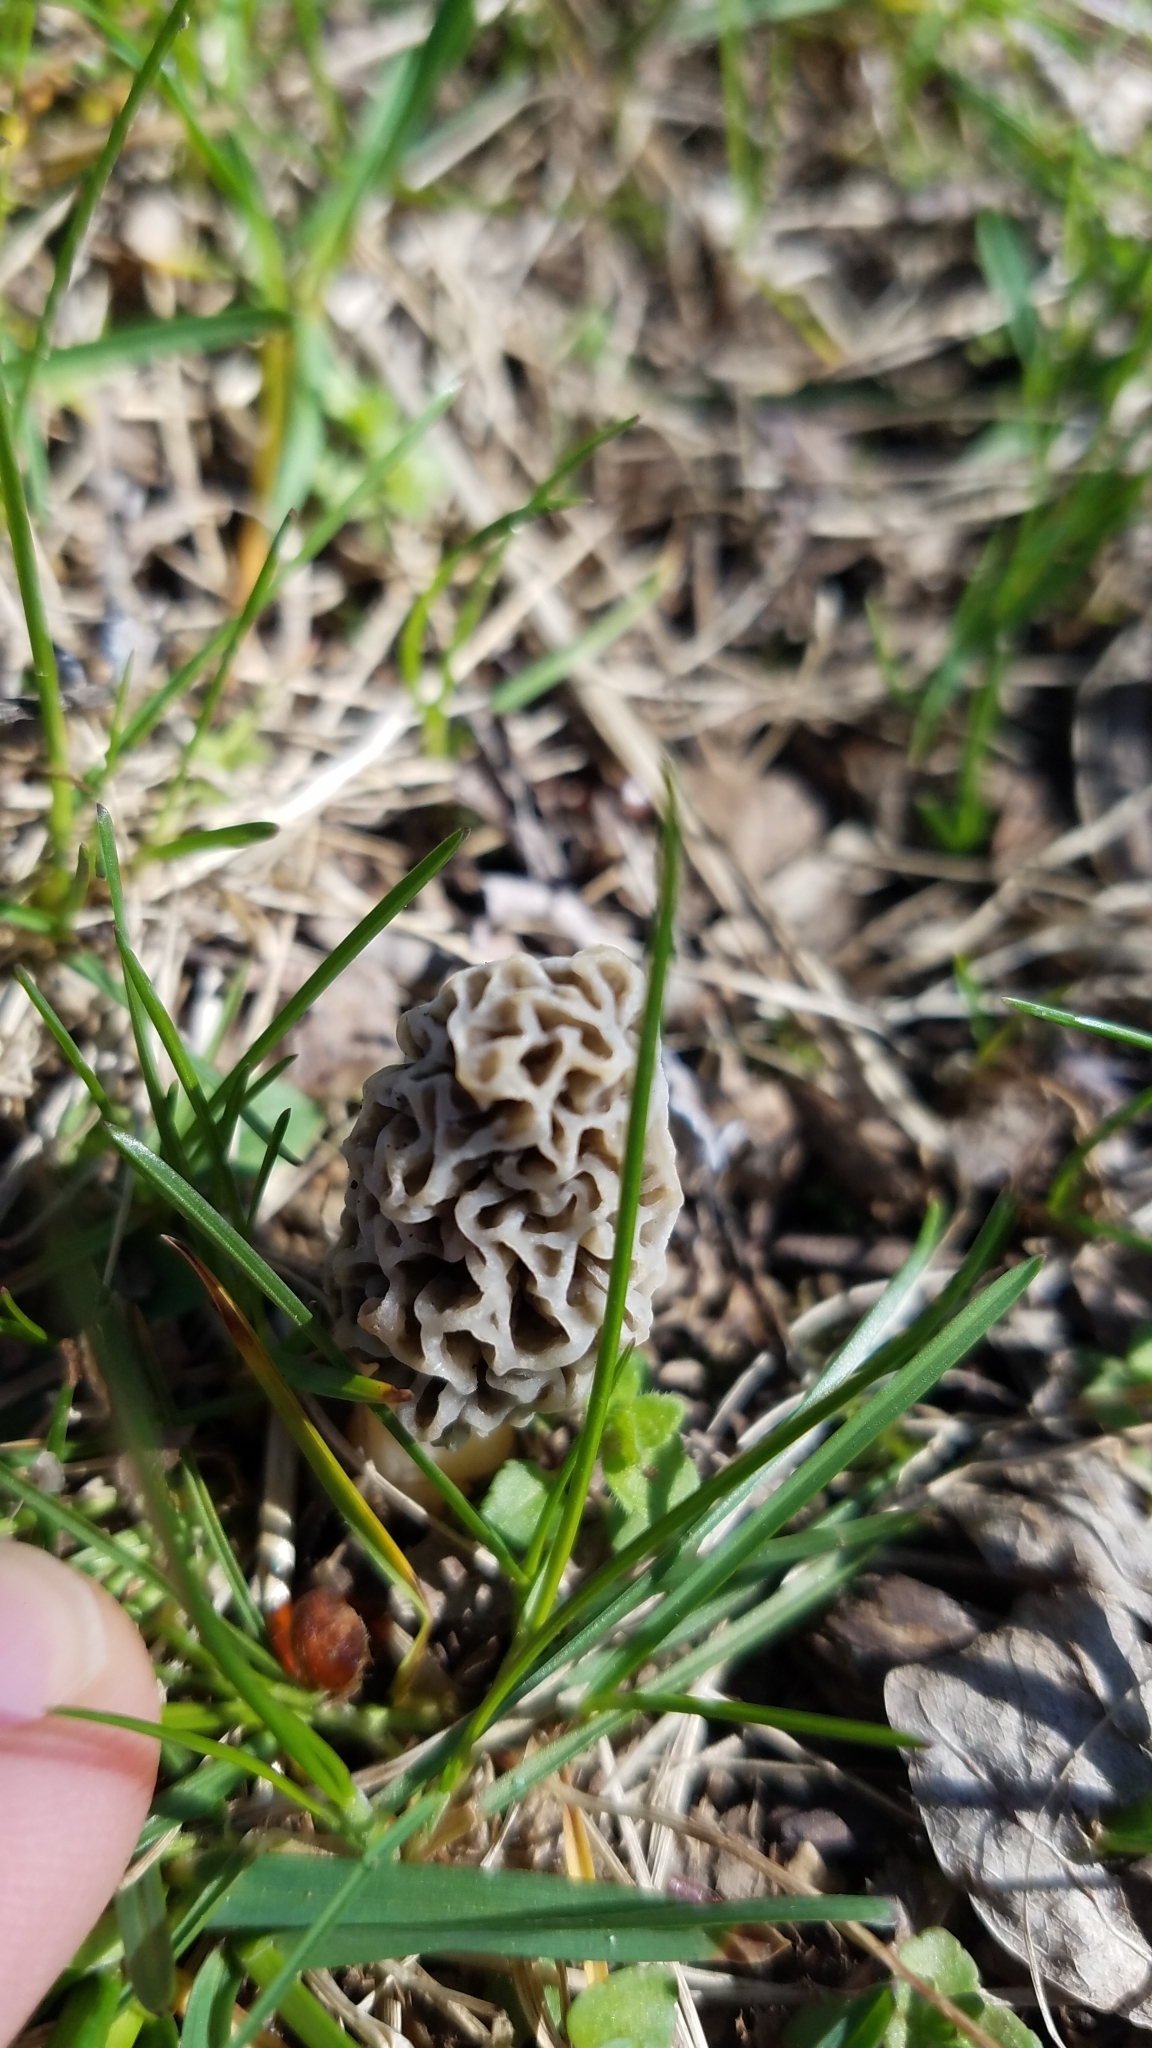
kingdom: Fungi
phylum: Ascomycota
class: Pezizomycetes
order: Pezizales
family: Morchellaceae
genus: Morchella
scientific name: Morchella americana
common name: White morel
